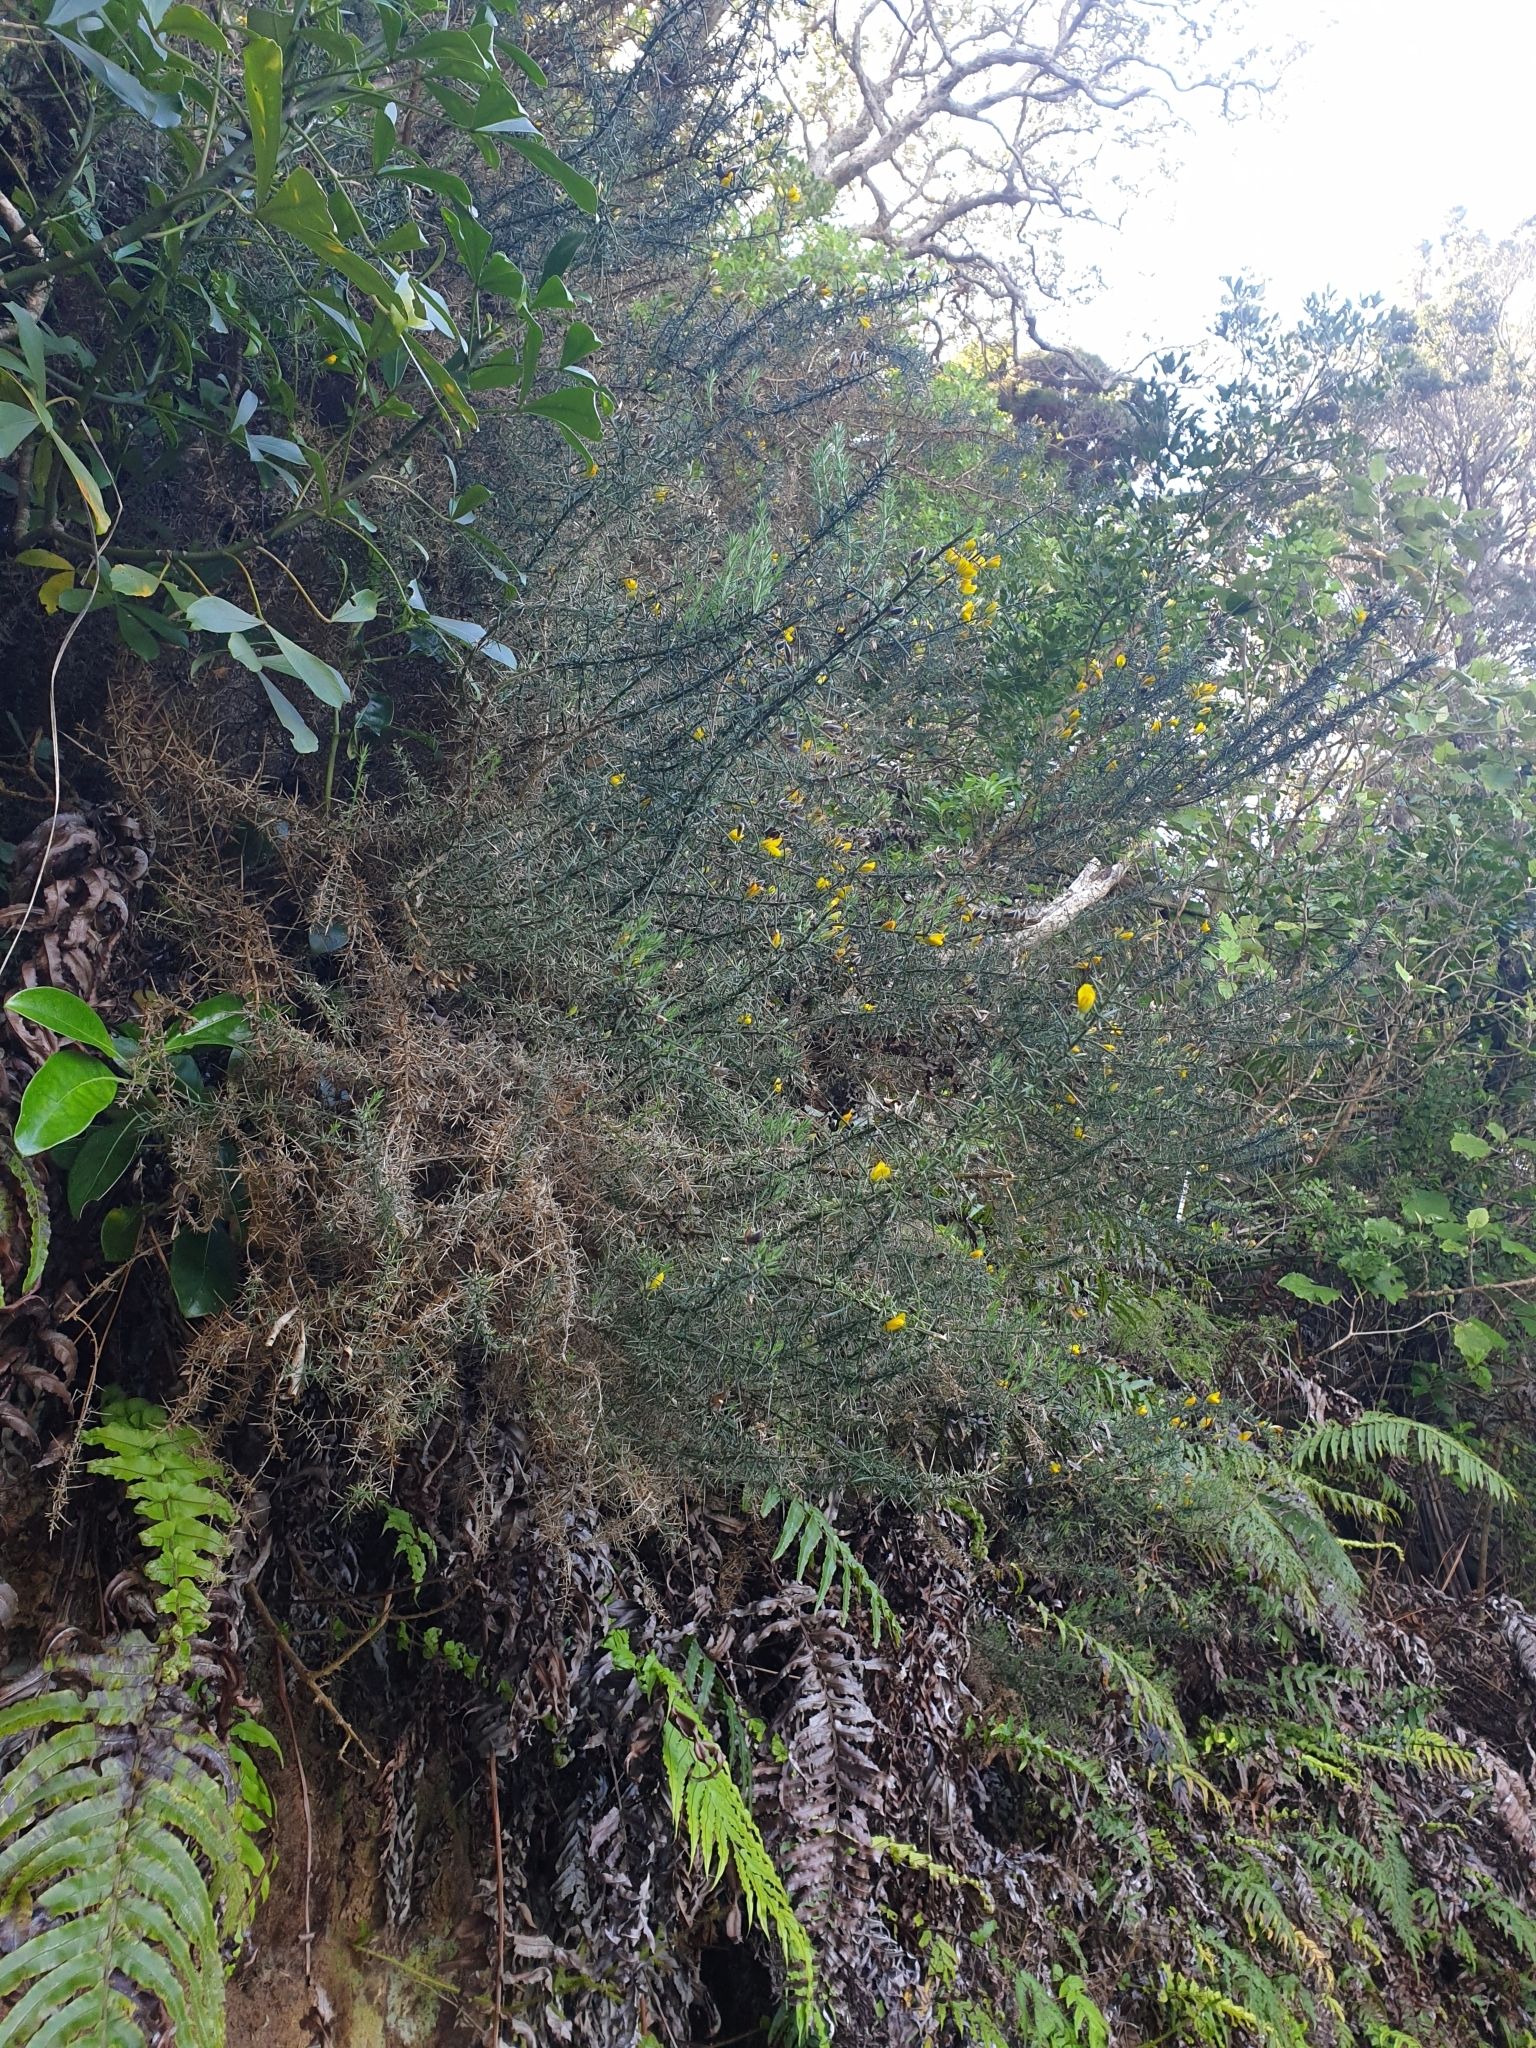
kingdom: Plantae
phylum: Tracheophyta
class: Magnoliopsida
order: Fabales
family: Fabaceae
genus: Ulex
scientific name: Ulex europaeus
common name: Common gorse
